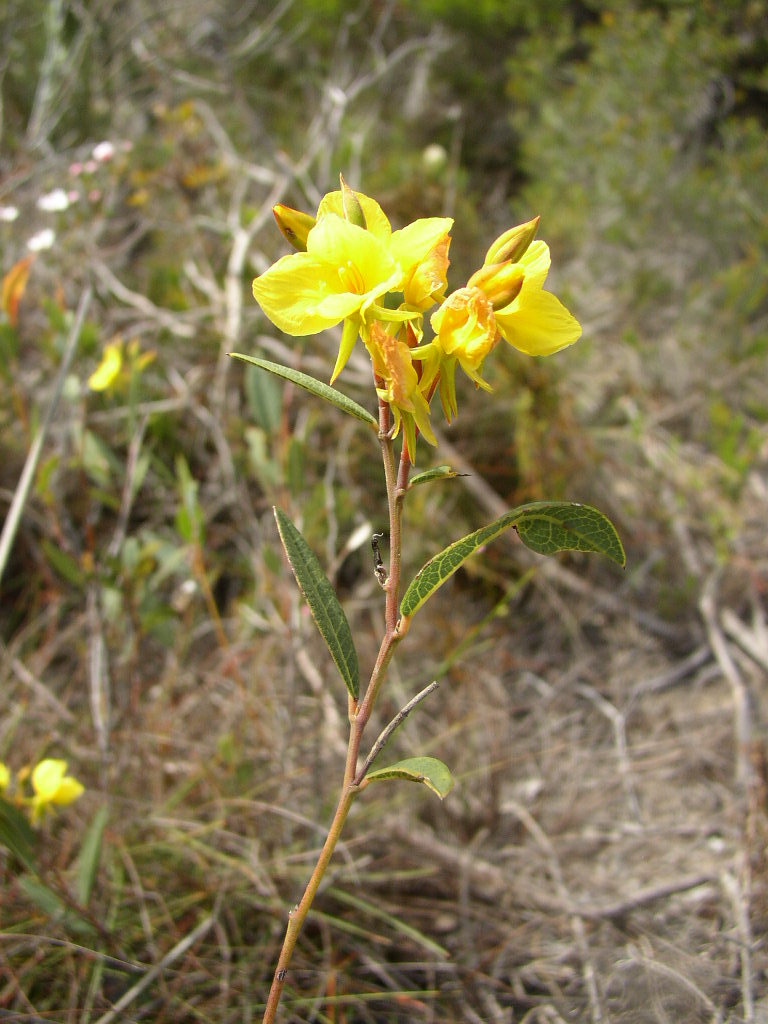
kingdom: Plantae
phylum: Tracheophyta
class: Magnoliopsida
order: Fabales
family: Fabaceae
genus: Labichea
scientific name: Labichea punctata
